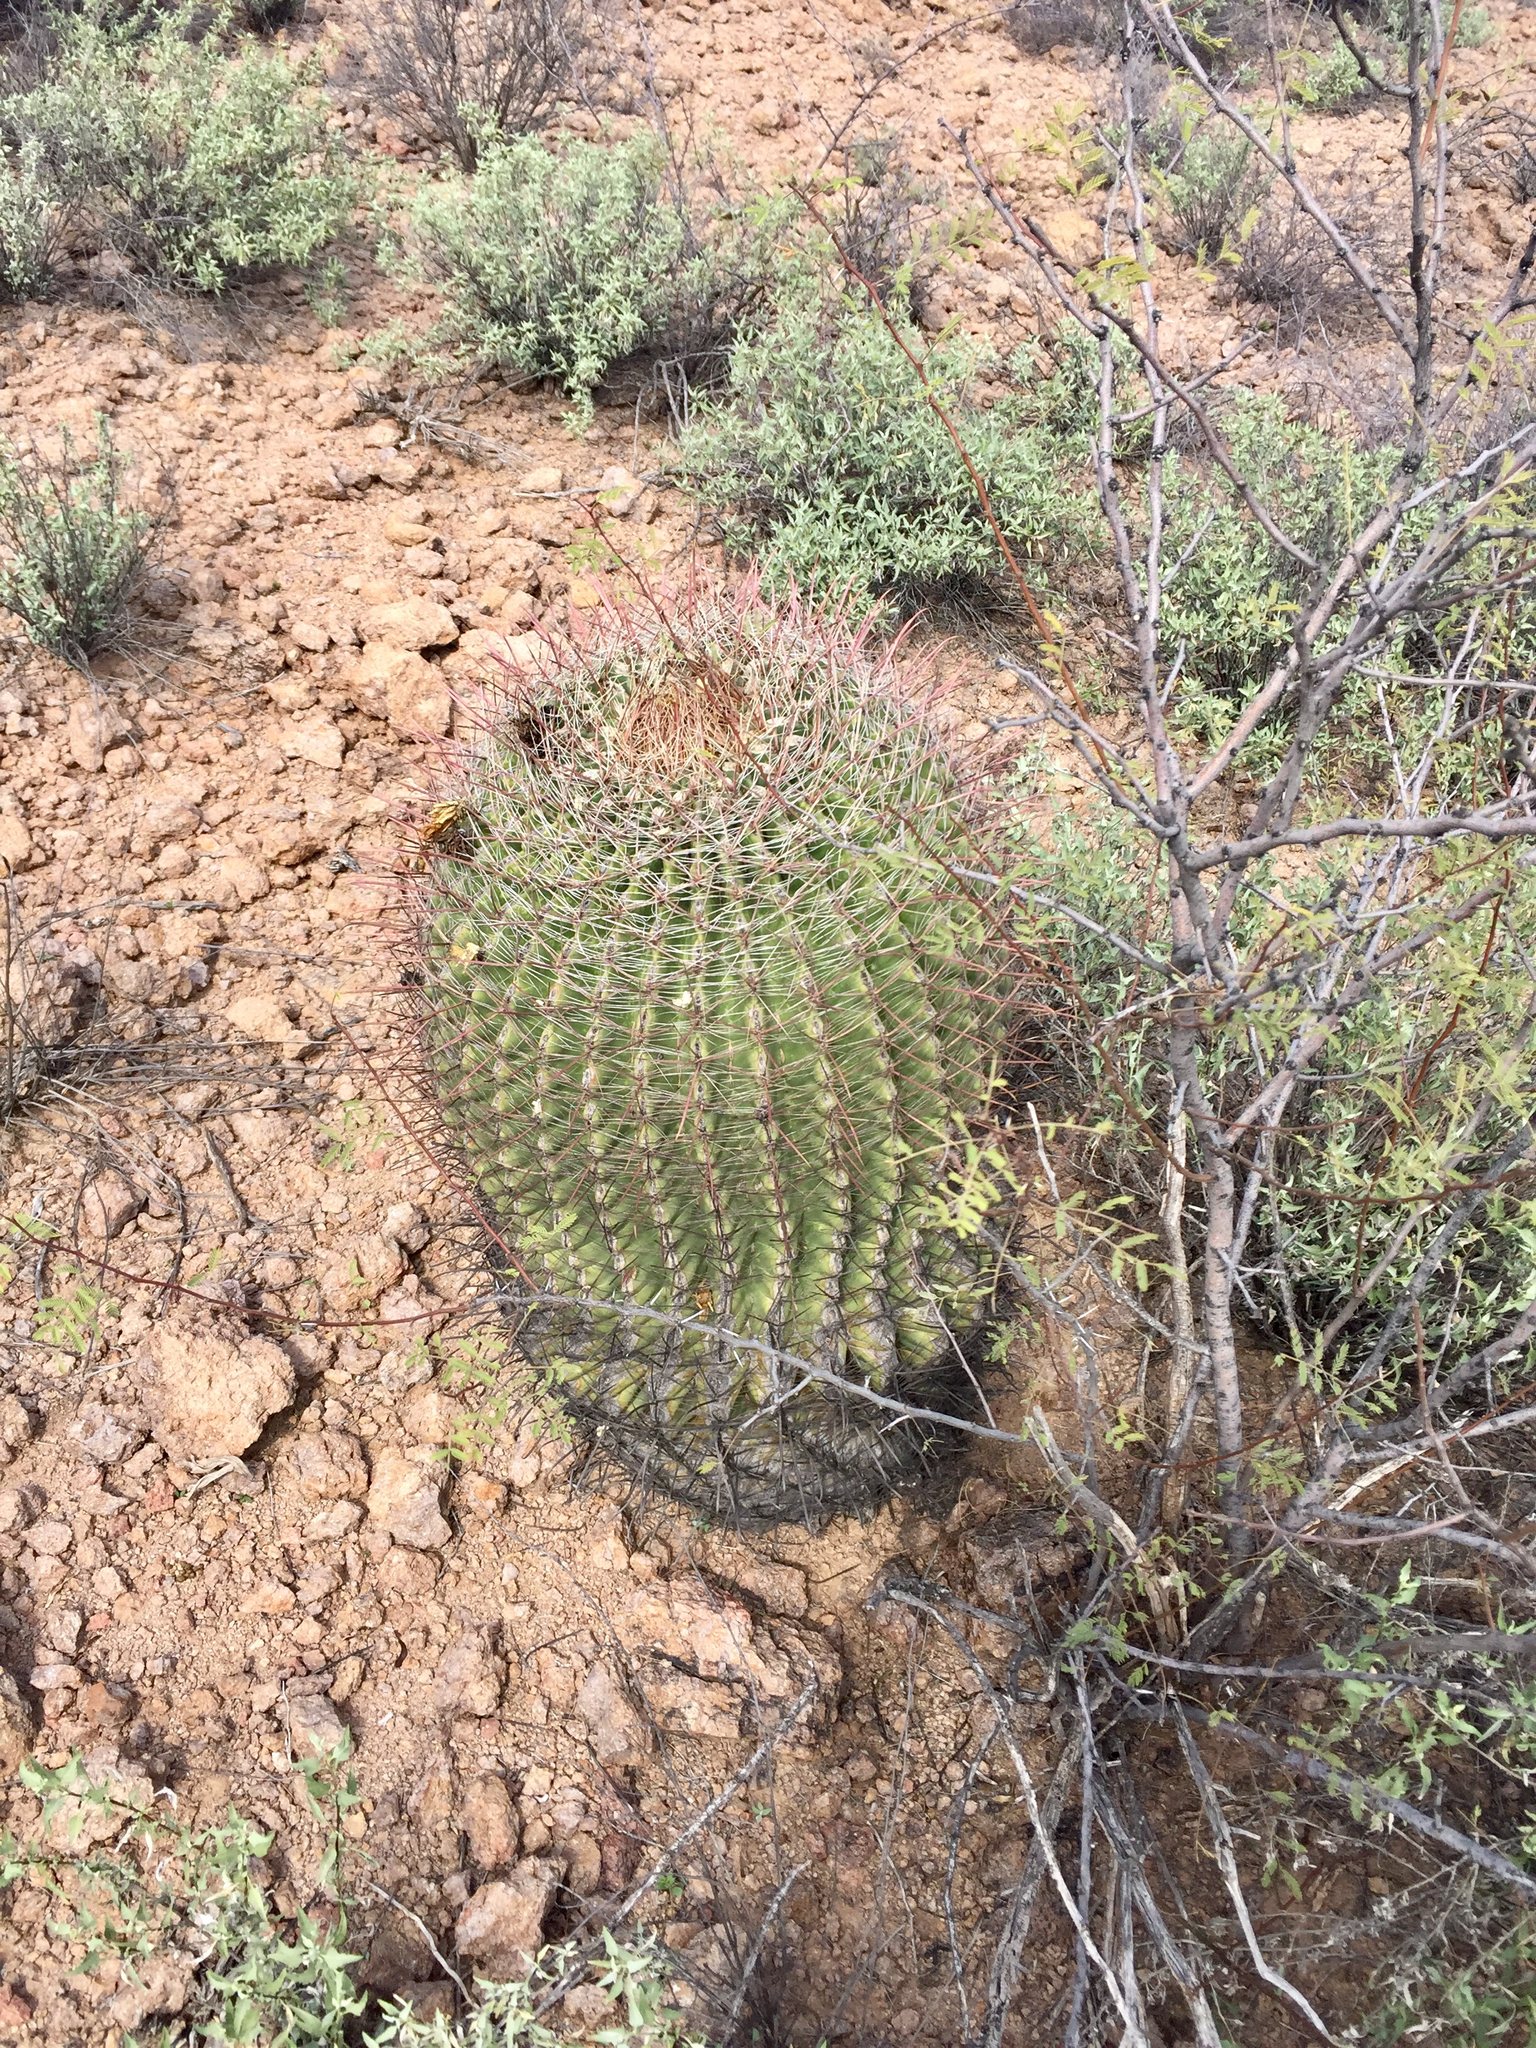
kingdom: Plantae
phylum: Tracheophyta
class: Magnoliopsida
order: Caryophyllales
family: Cactaceae
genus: Ferocactus
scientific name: Ferocactus wislizeni
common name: Candy barrel cactus
